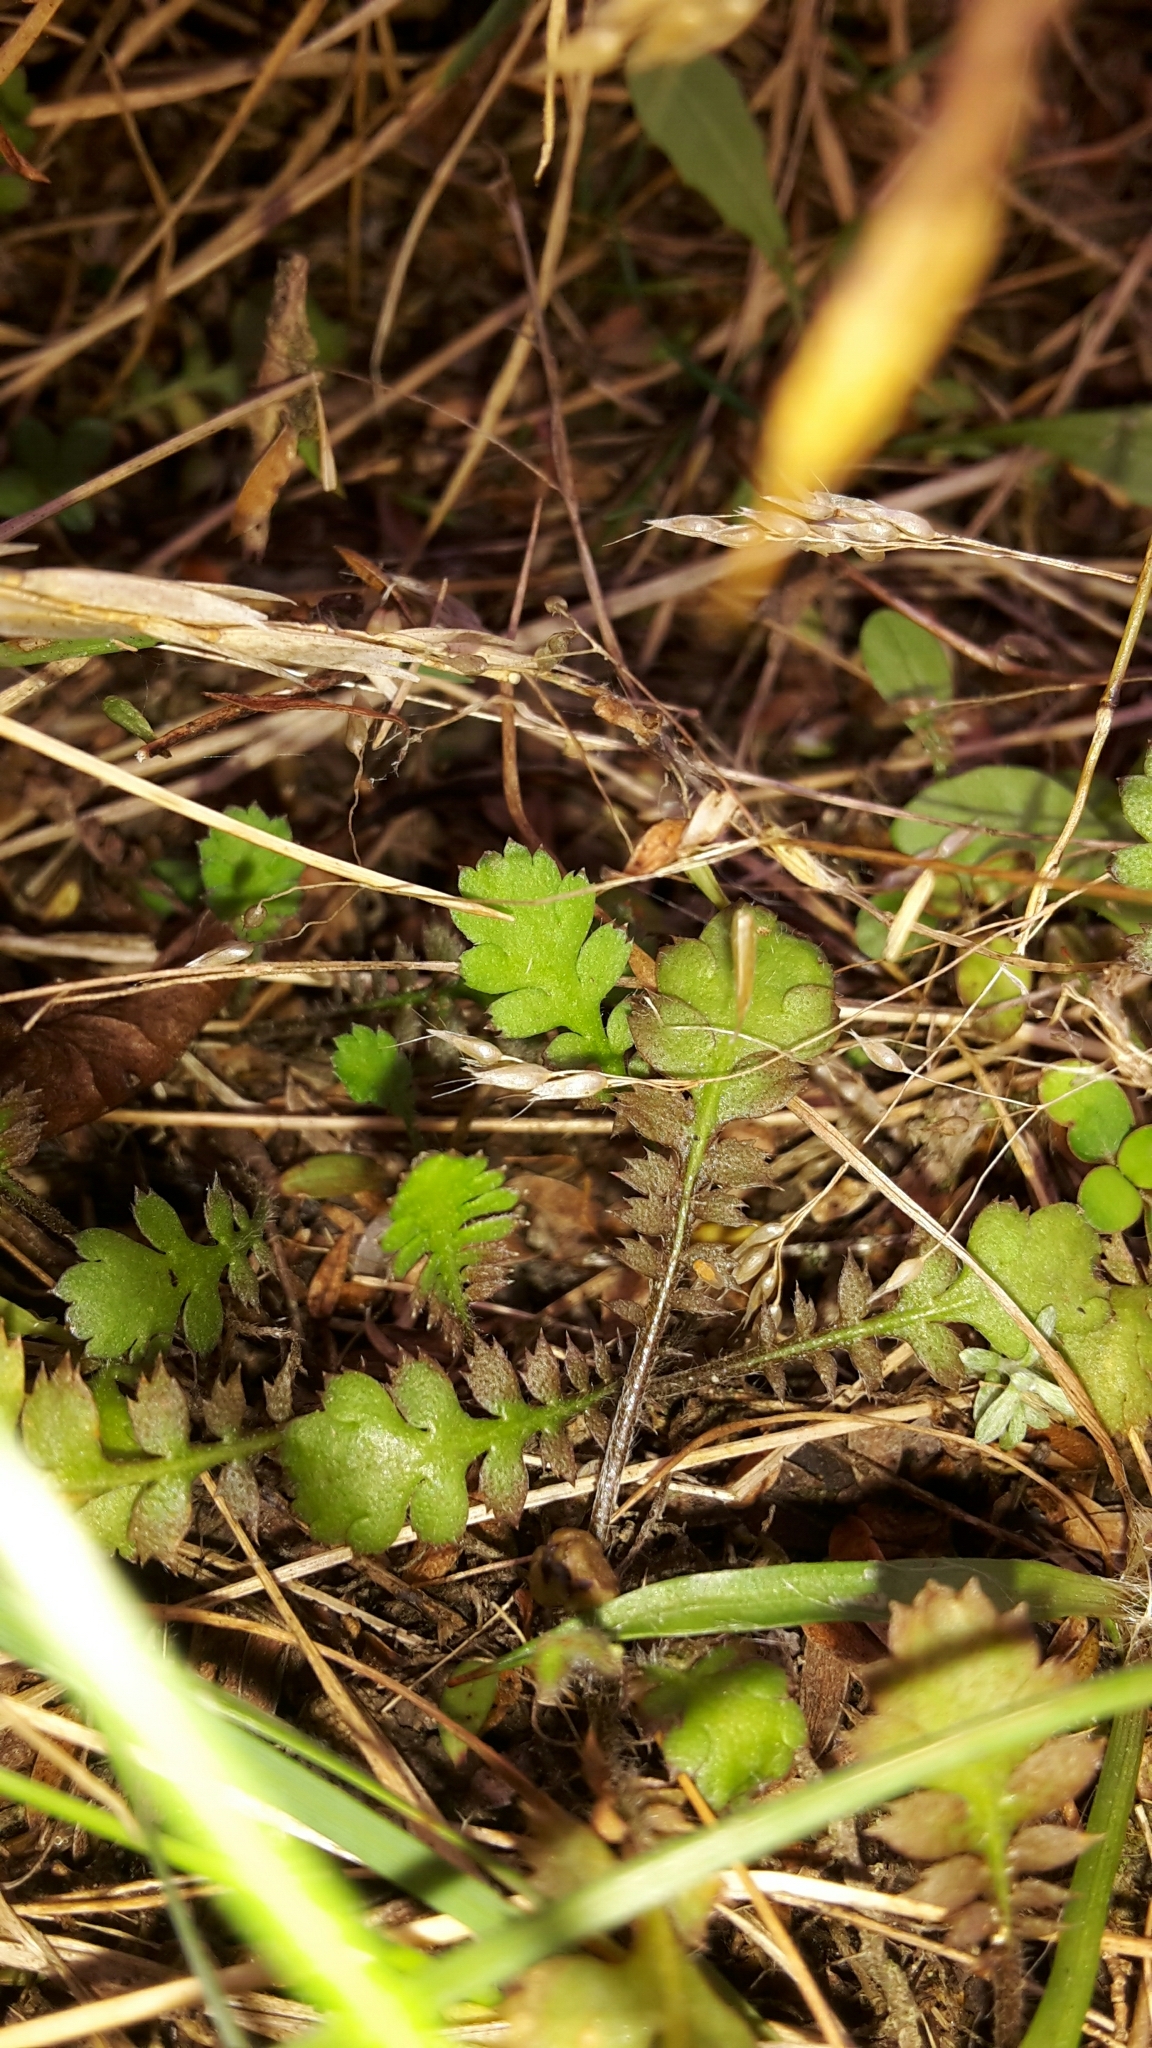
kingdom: Plantae
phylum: Tracheophyta
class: Magnoliopsida
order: Asterales
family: Asteraceae
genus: Leptinella
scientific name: Leptinella squalida
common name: New zealand brass-buttons
